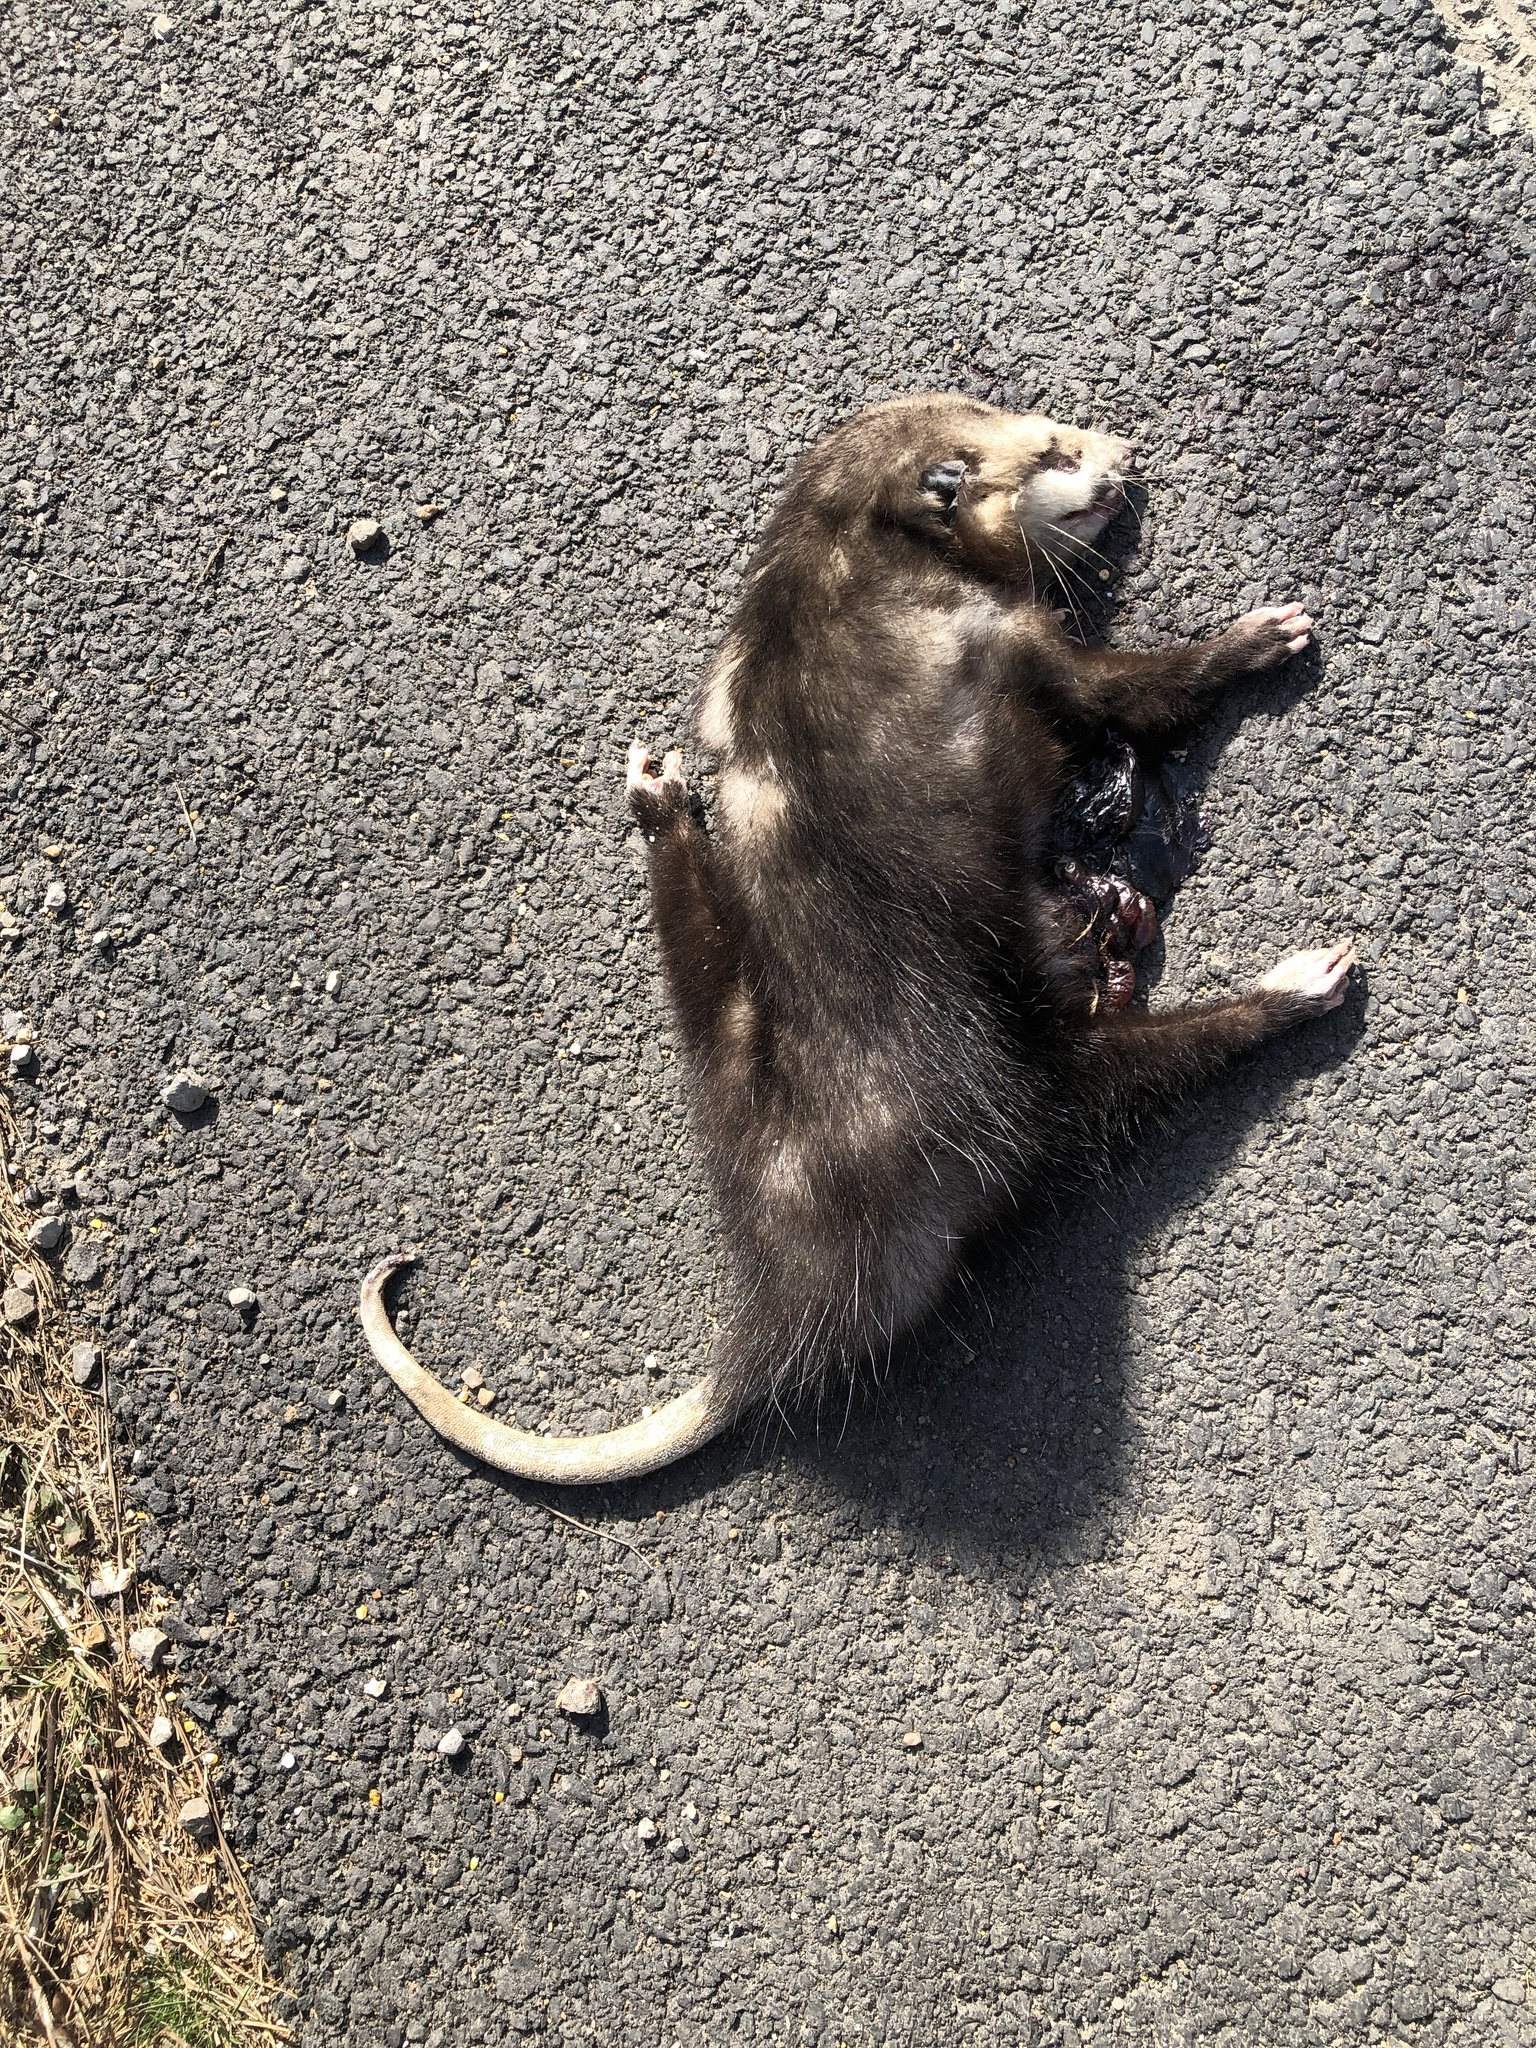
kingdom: Animalia
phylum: Chordata
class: Mammalia
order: Didelphimorphia
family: Didelphidae
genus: Didelphis
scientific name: Didelphis virginiana
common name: Virginia opossum
